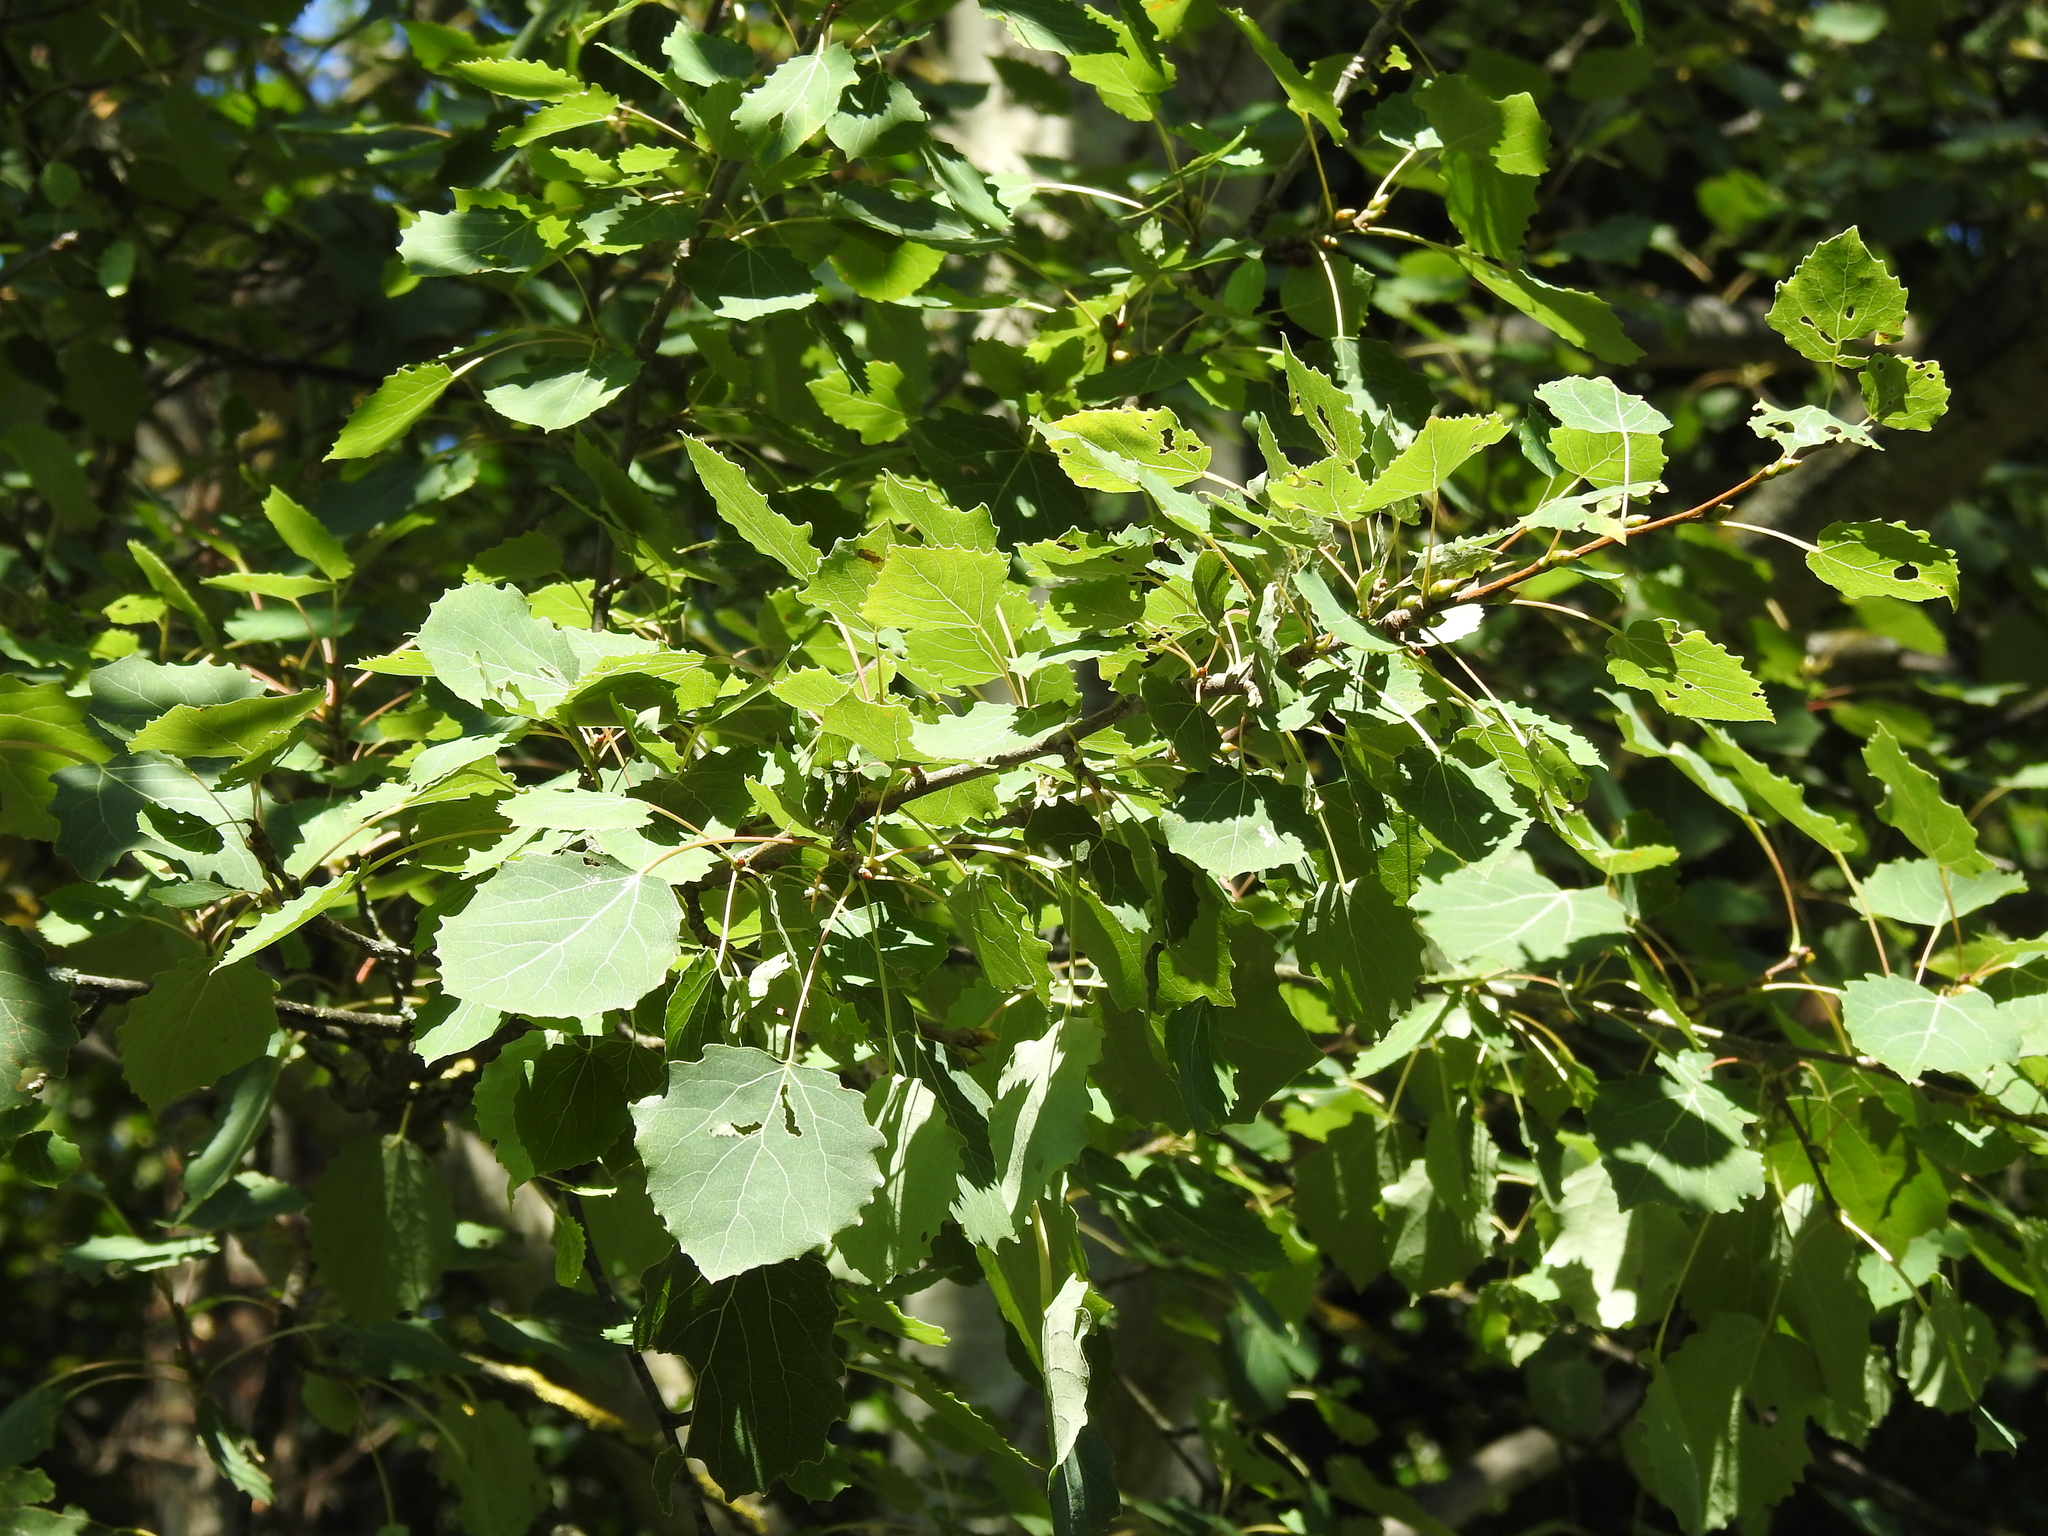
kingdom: Plantae
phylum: Tracheophyta
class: Magnoliopsida
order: Malpighiales
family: Salicaceae
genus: Populus
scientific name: Populus tremula
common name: European aspen
